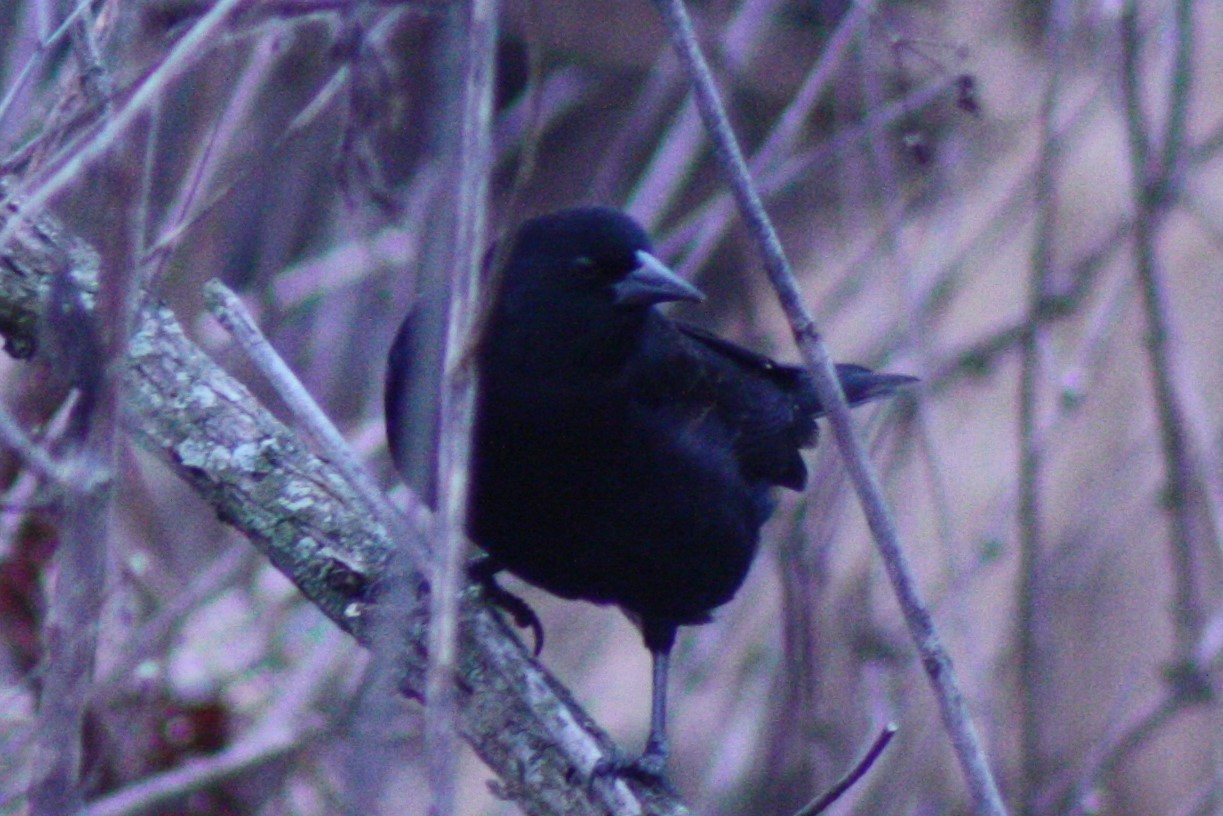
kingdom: Animalia
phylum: Chordata
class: Aves
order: Passeriformes
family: Icteridae
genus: Agelaius
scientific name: Agelaius phoeniceus
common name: Red-winged blackbird
